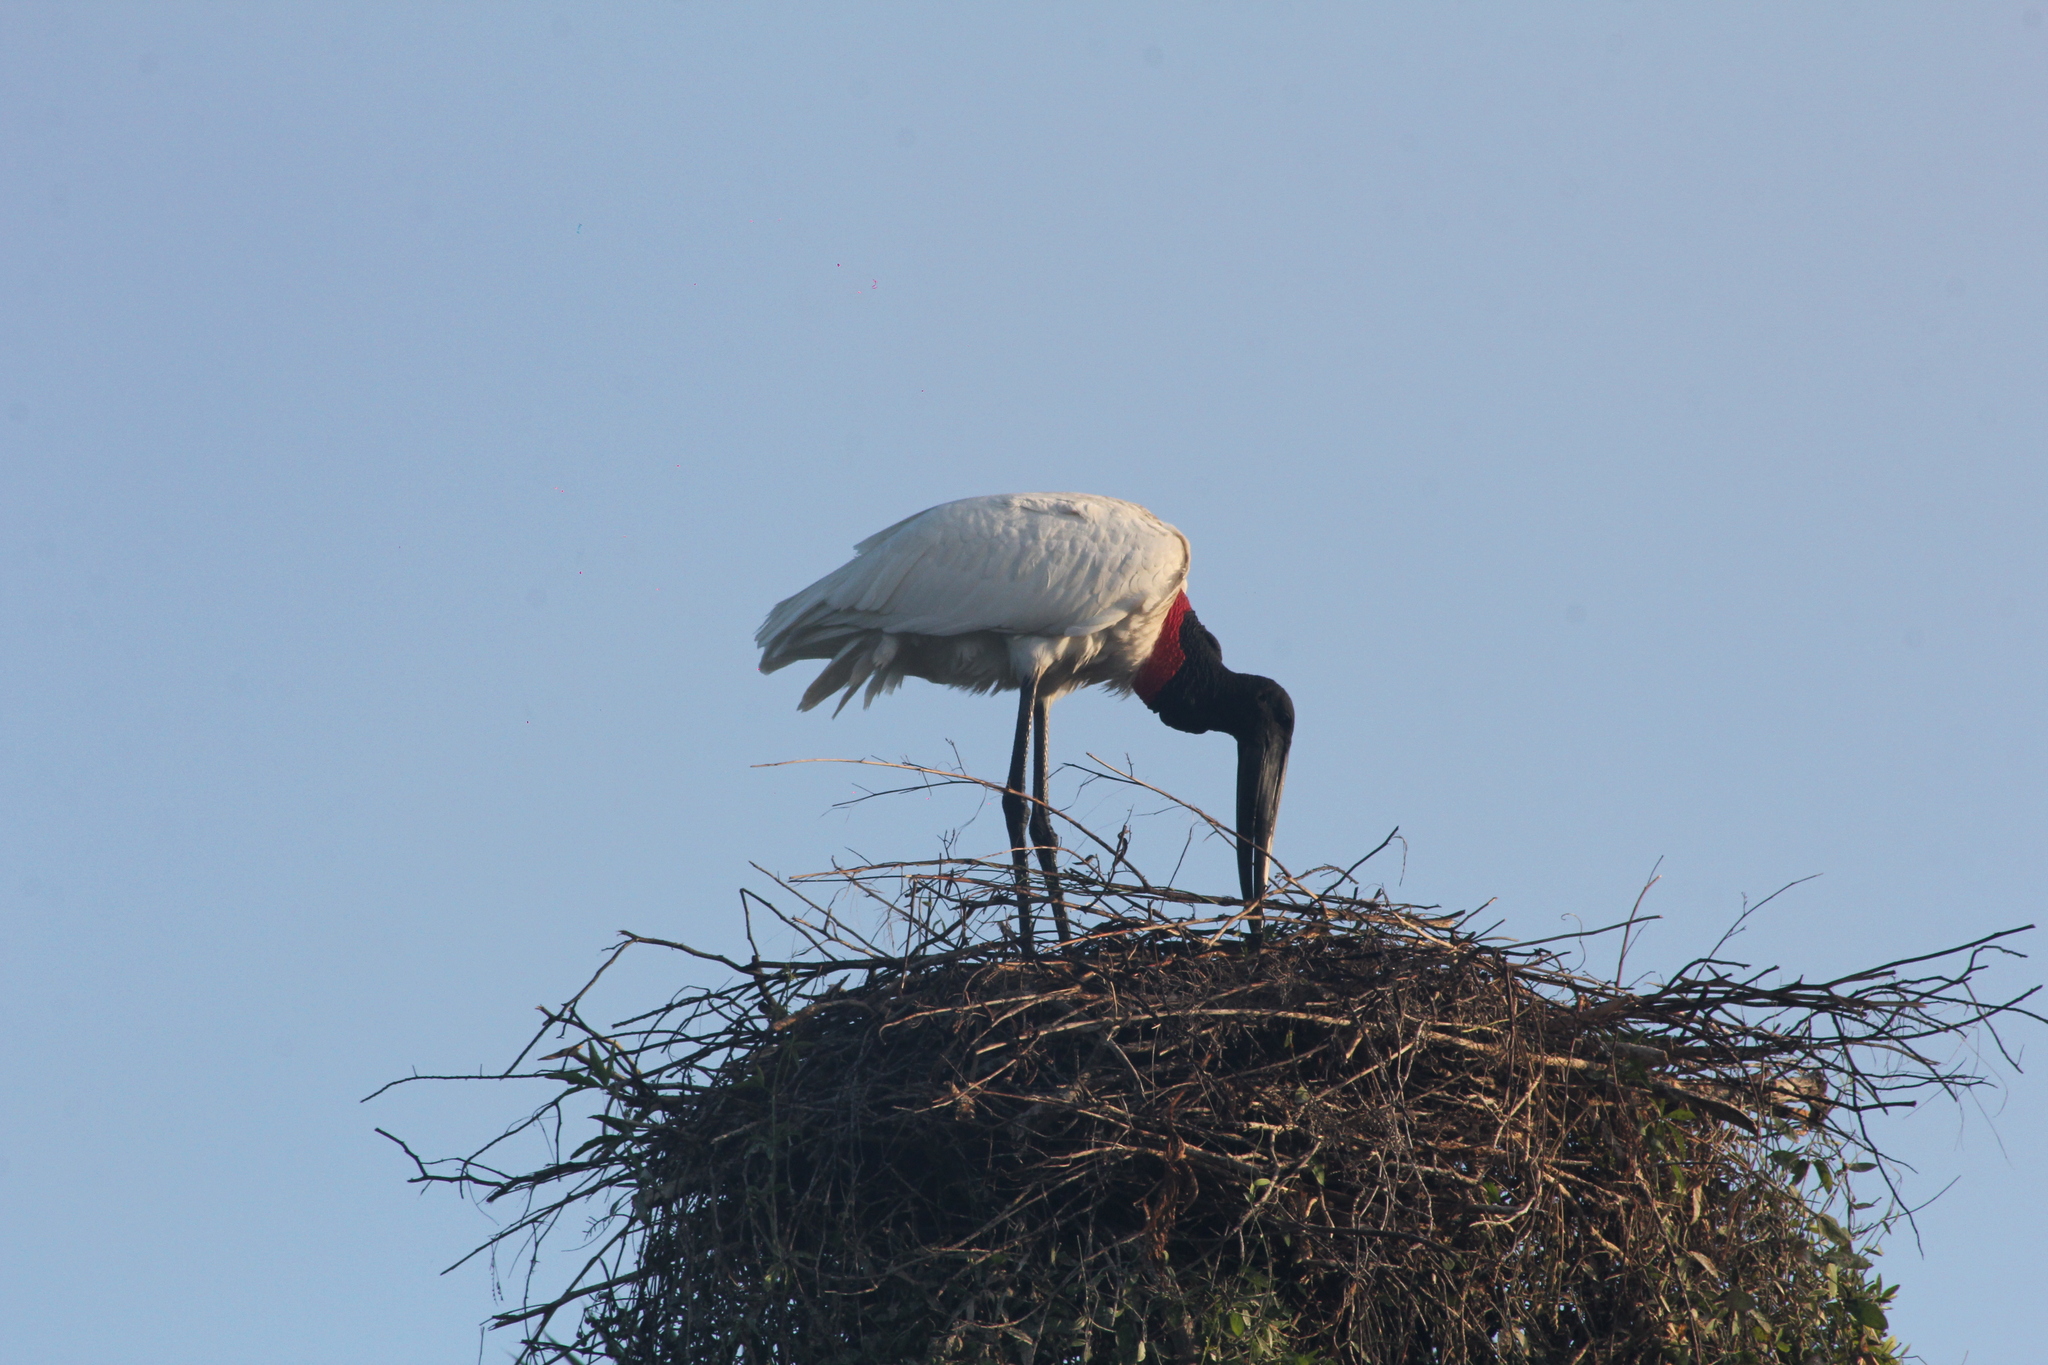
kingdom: Animalia
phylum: Chordata
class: Aves
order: Ciconiiformes
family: Ciconiidae
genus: Jabiru
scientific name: Jabiru mycteria
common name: Jabiru
